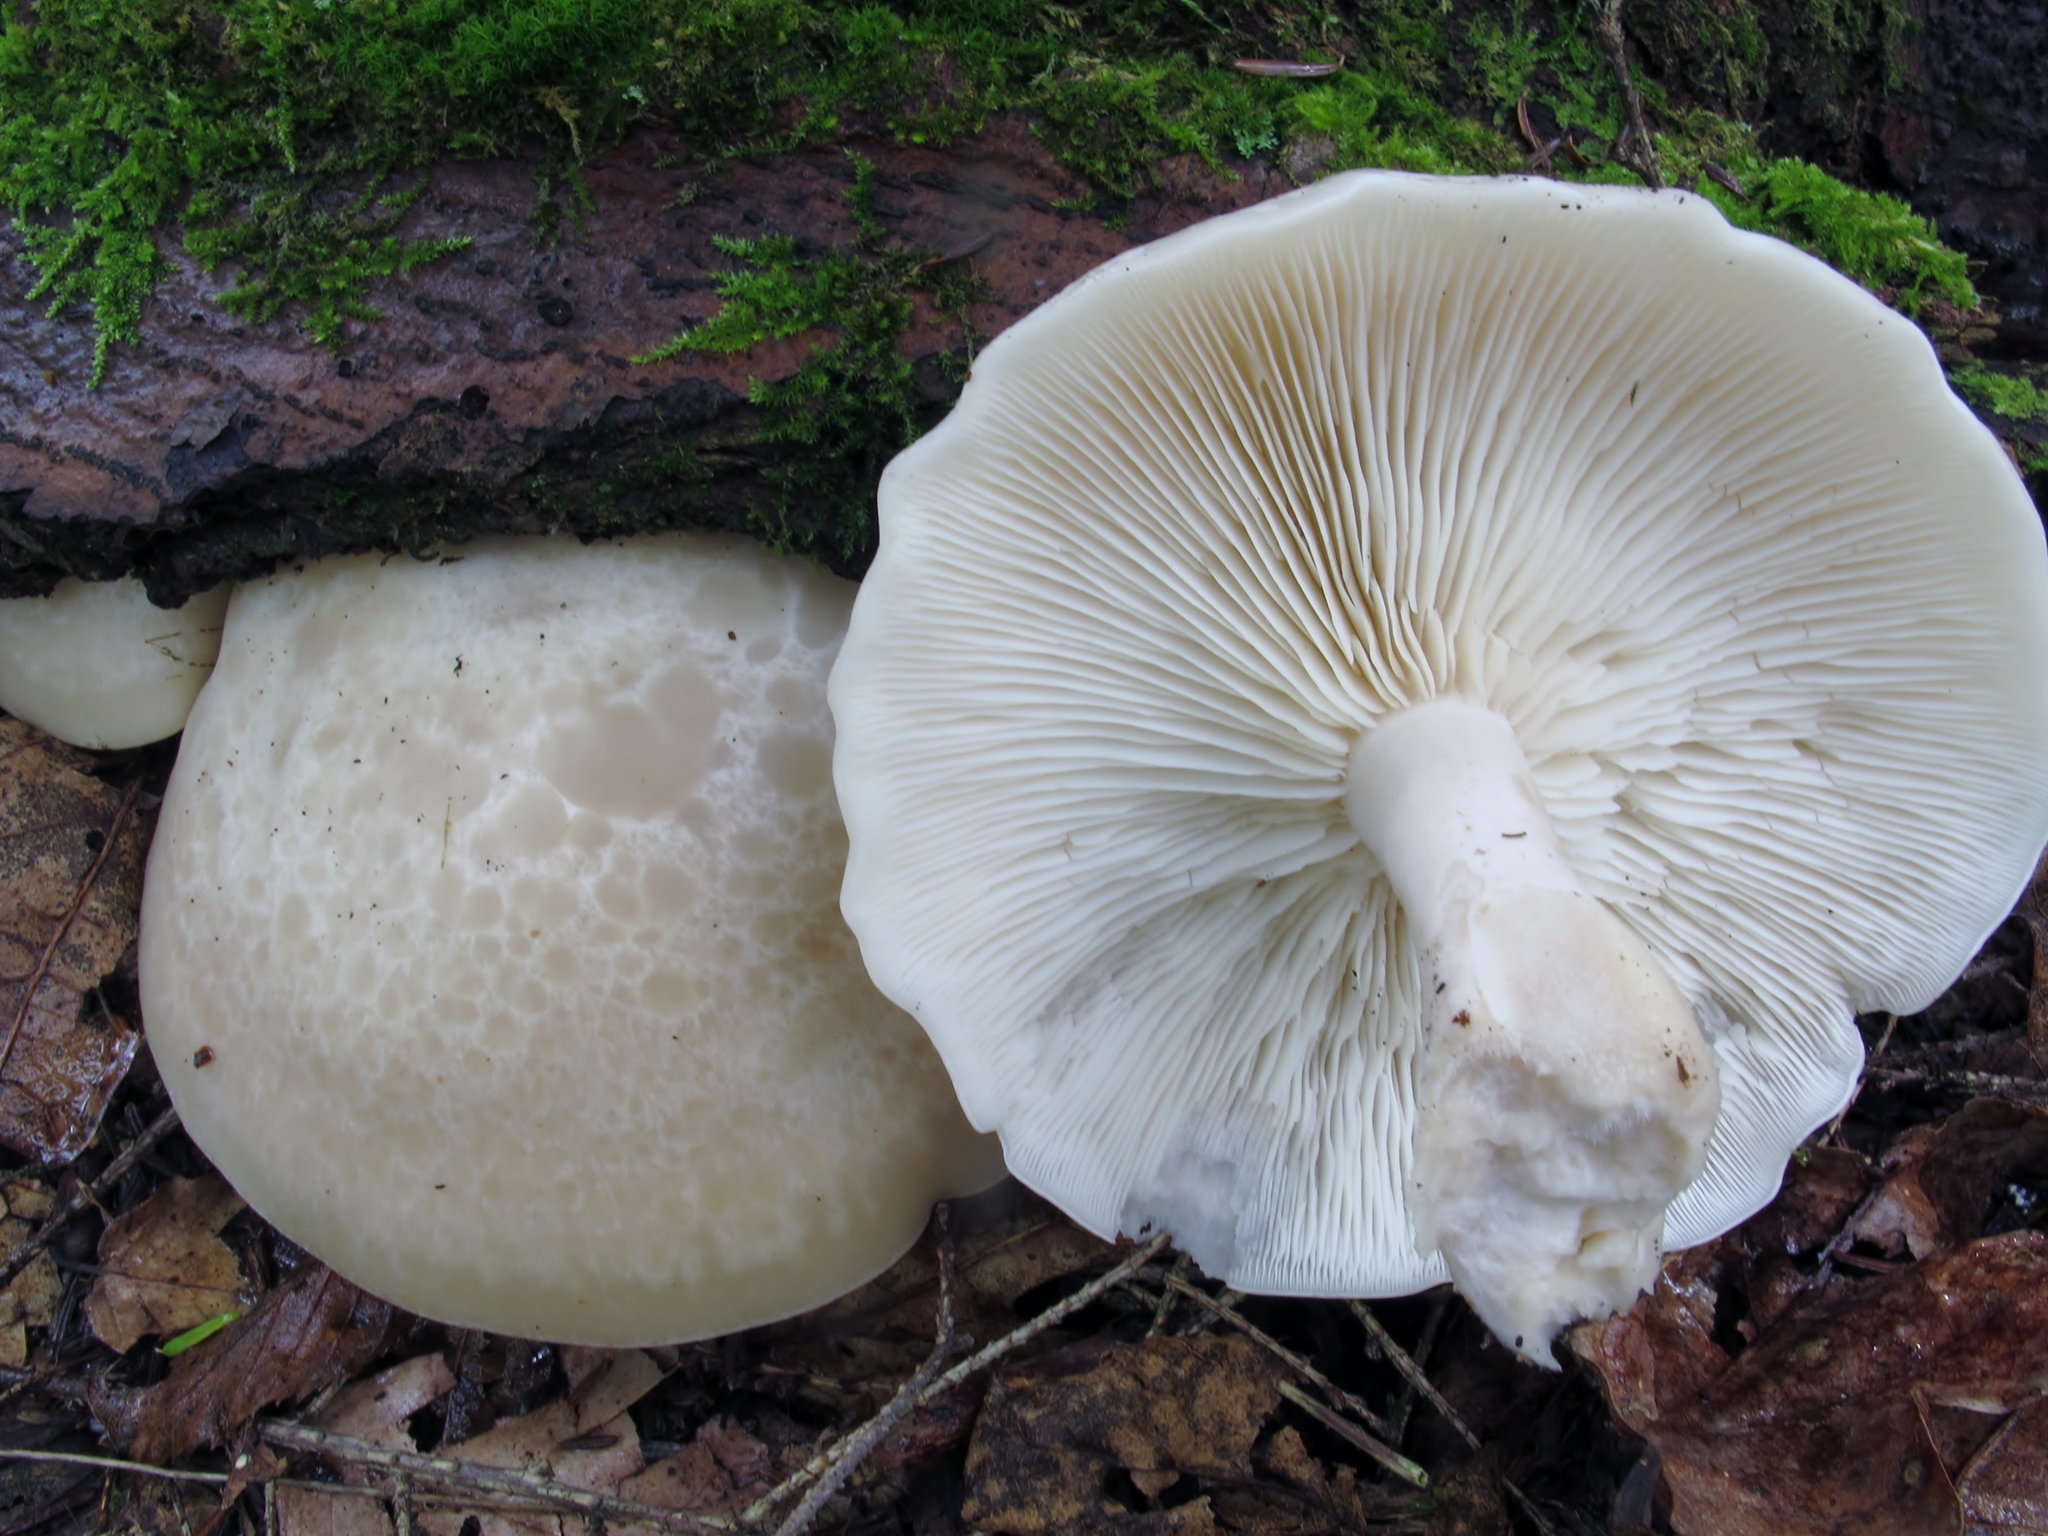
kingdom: Fungi
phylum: Basidiomycota
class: Agaricomycetes
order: Agaricales
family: Lyophyllaceae
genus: Hypsizygus
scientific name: Hypsizygus marmoreus
